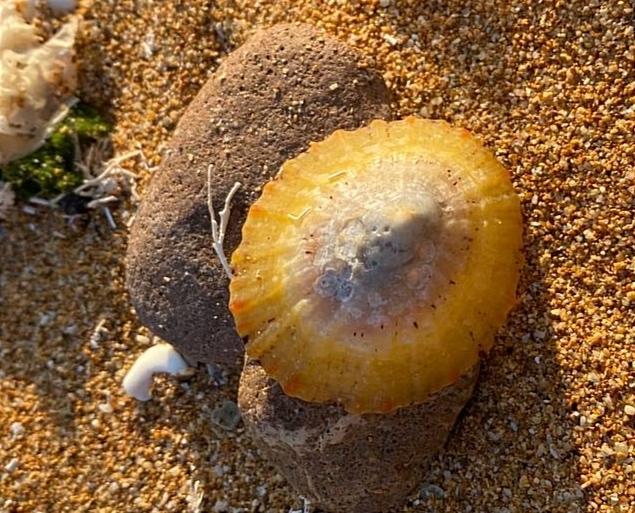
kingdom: Animalia
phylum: Mollusca
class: Gastropoda
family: Nacellidae
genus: Cellana
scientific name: Cellana tramoserica
